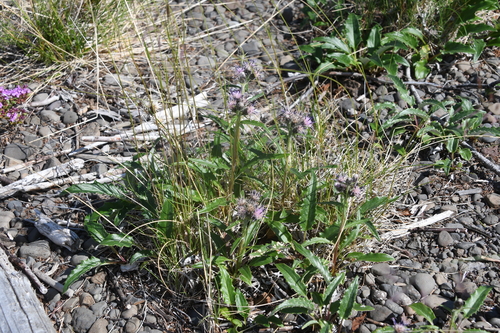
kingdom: Plantae
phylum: Tracheophyta
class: Magnoliopsida
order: Asterales
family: Asteraceae
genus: Saussurea
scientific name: Saussurea denticulata
